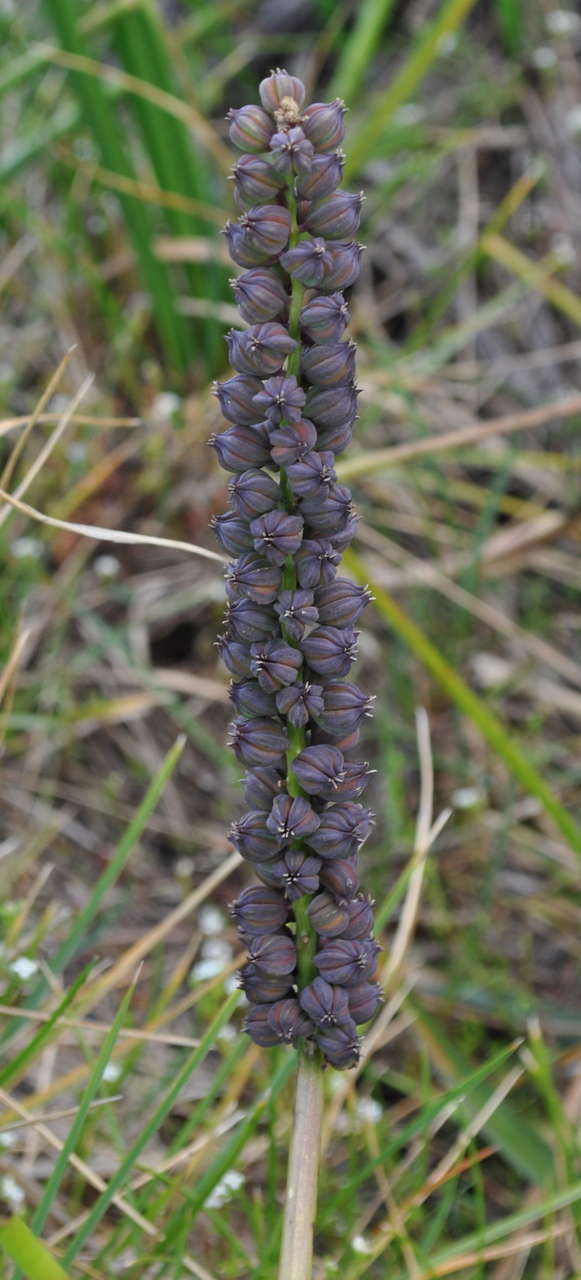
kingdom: Plantae
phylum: Tracheophyta
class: Liliopsida
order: Alismatales
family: Juncaginaceae
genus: Cycnogeton
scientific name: Cycnogeton procerum
